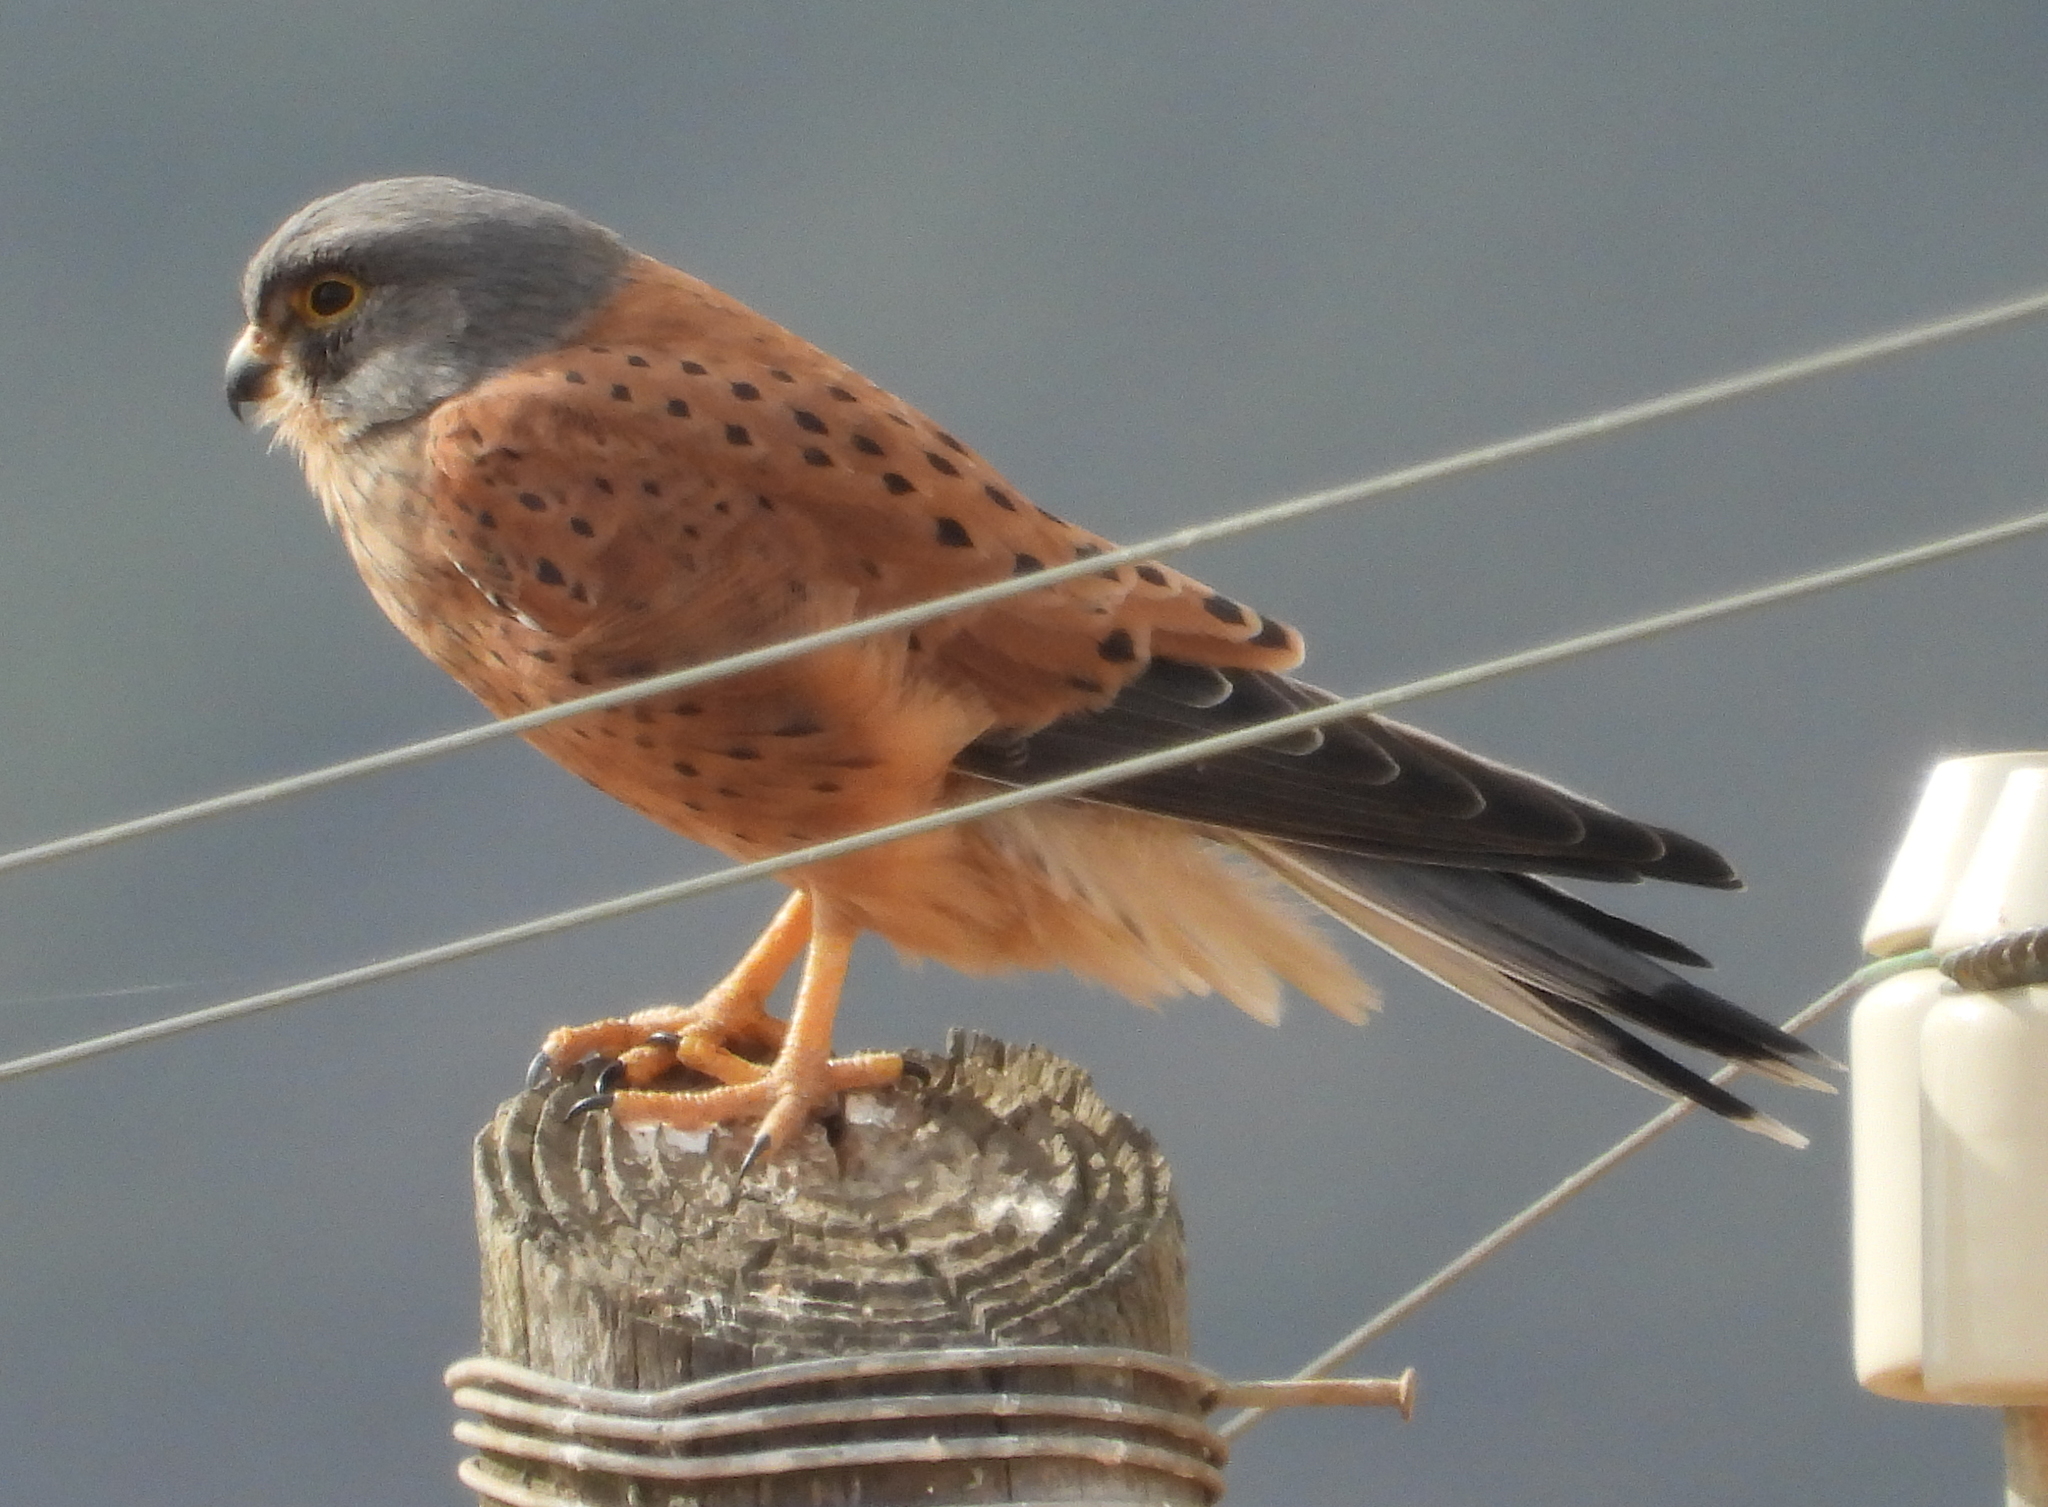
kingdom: Animalia
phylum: Chordata
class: Aves
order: Falconiformes
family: Falconidae
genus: Falco
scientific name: Falco rupicolus
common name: Rock kestrel
